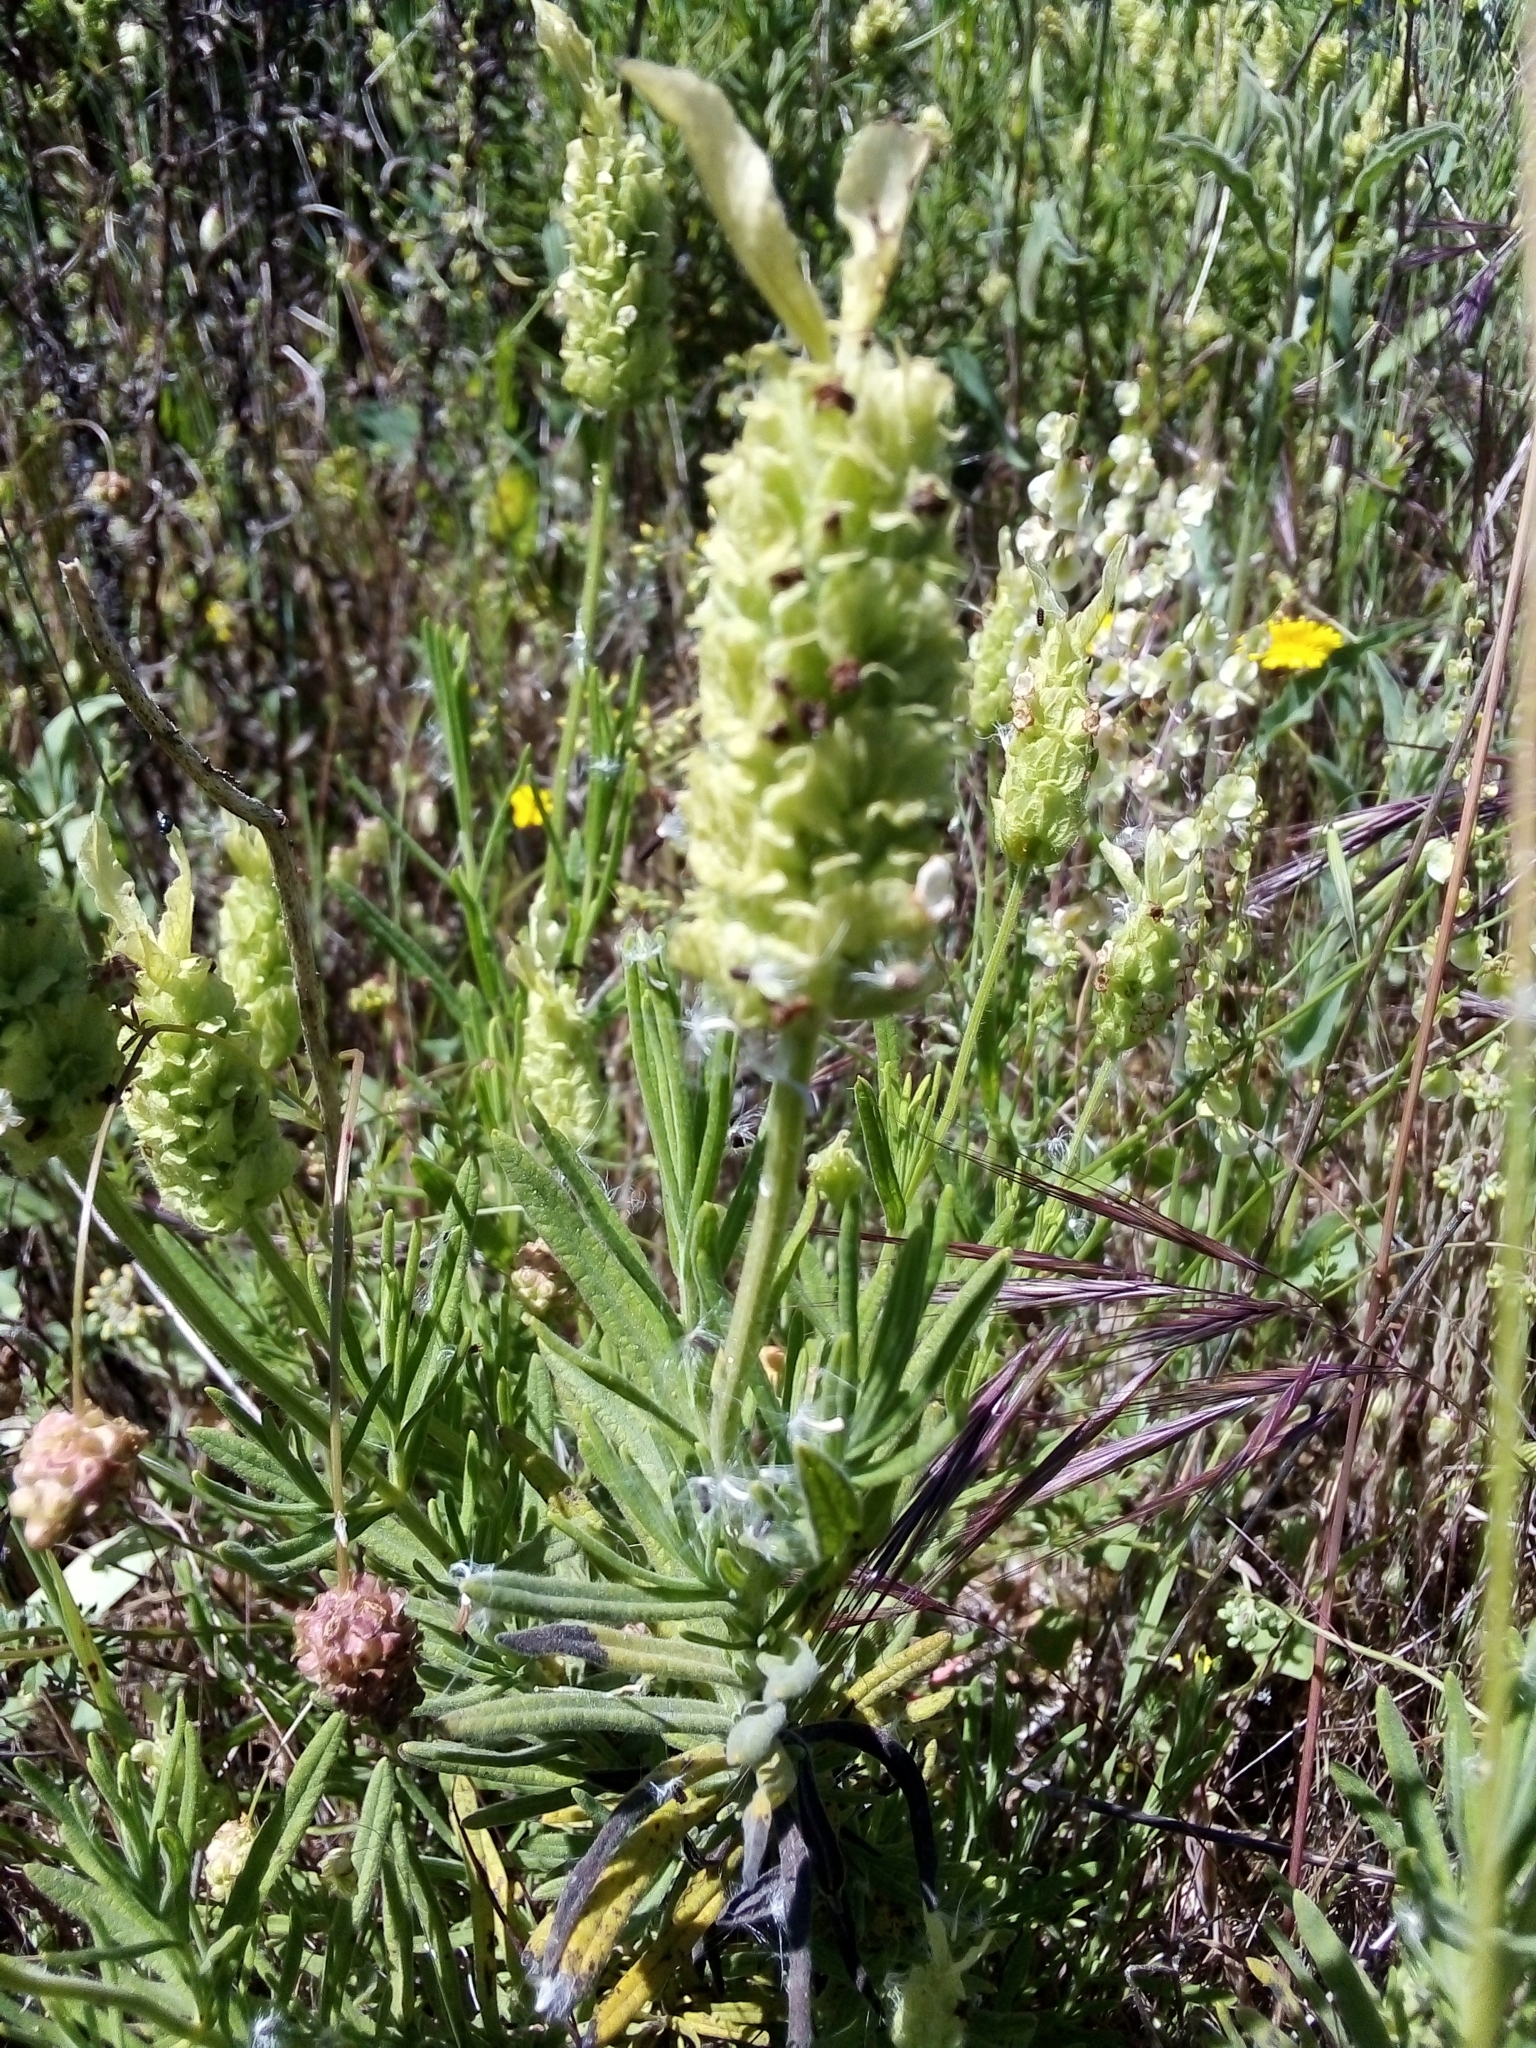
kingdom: Plantae
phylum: Tracheophyta
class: Magnoliopsida
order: Lamiales
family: Lamiaceae
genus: Lavandula
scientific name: Lavandula viridis
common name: Green spanish lavender
